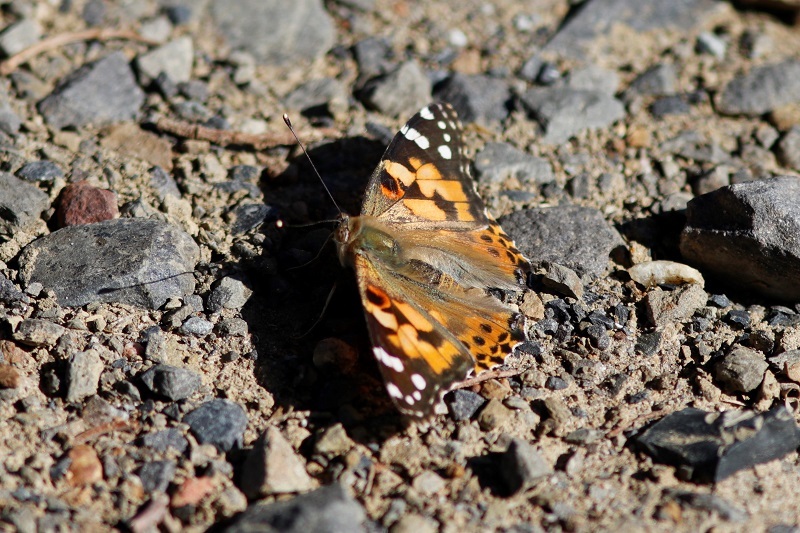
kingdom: Animalia
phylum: Arthropoda
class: Insecta
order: Lepidoptera
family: Nymphalidae
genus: Vanessa
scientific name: Vanessa cardui
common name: Painted lady
